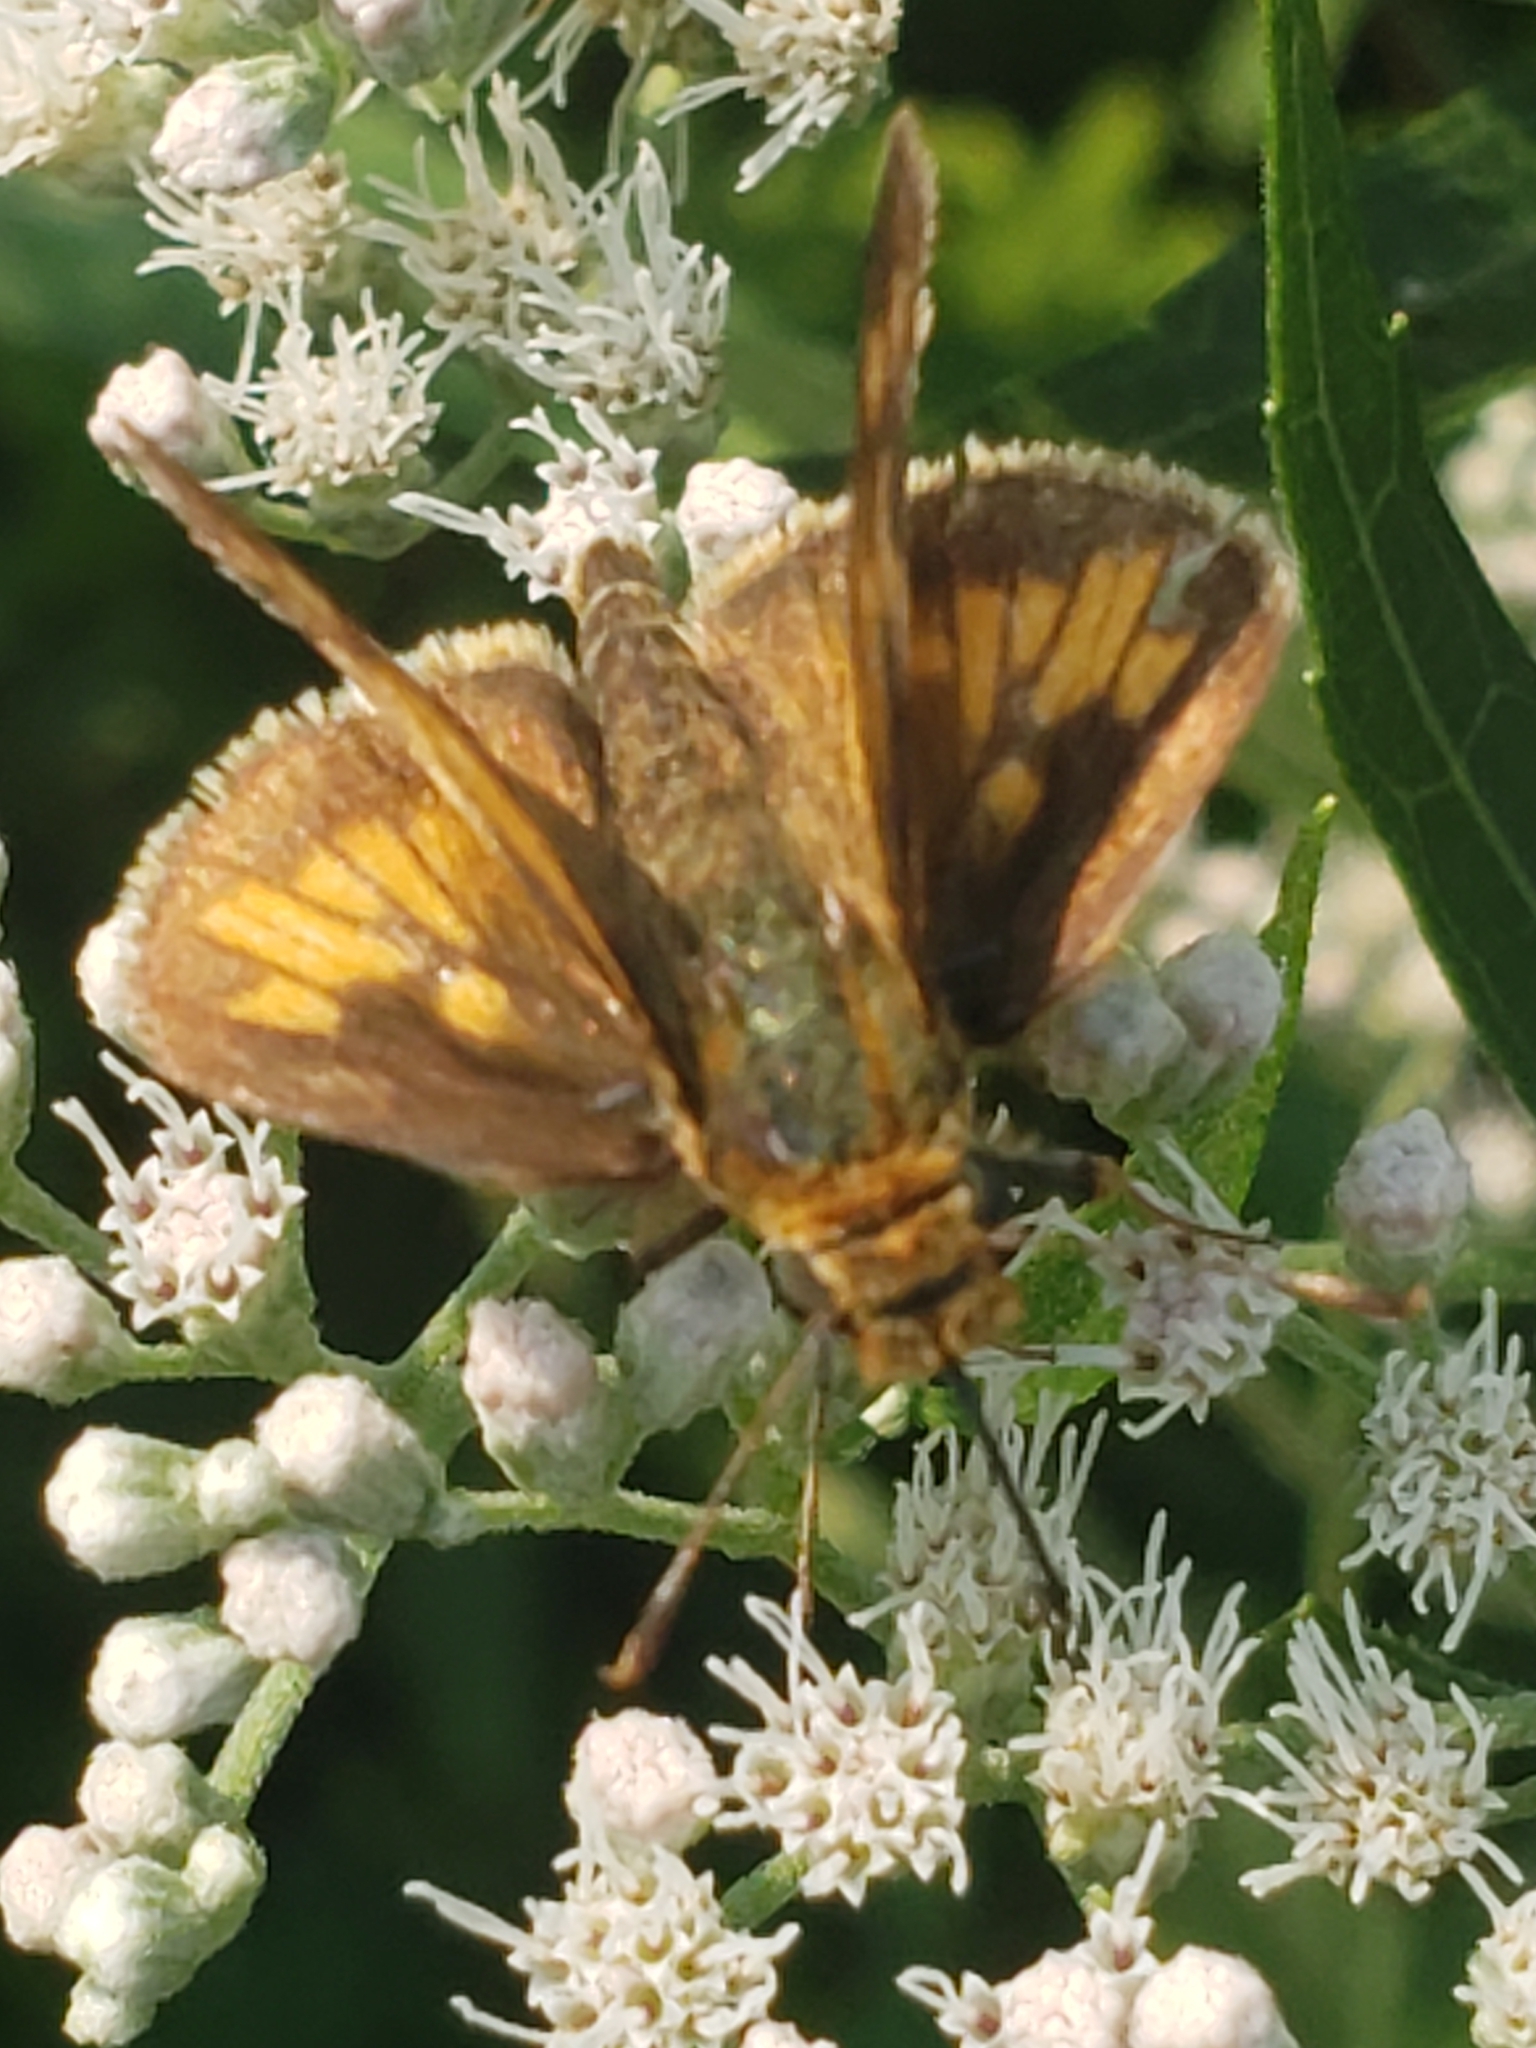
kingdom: Animalia
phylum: Arthropoda
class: Insecta
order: Lepidoptera
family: Hesperiidae
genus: Polites
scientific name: Polites coras
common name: Peck's skipper
